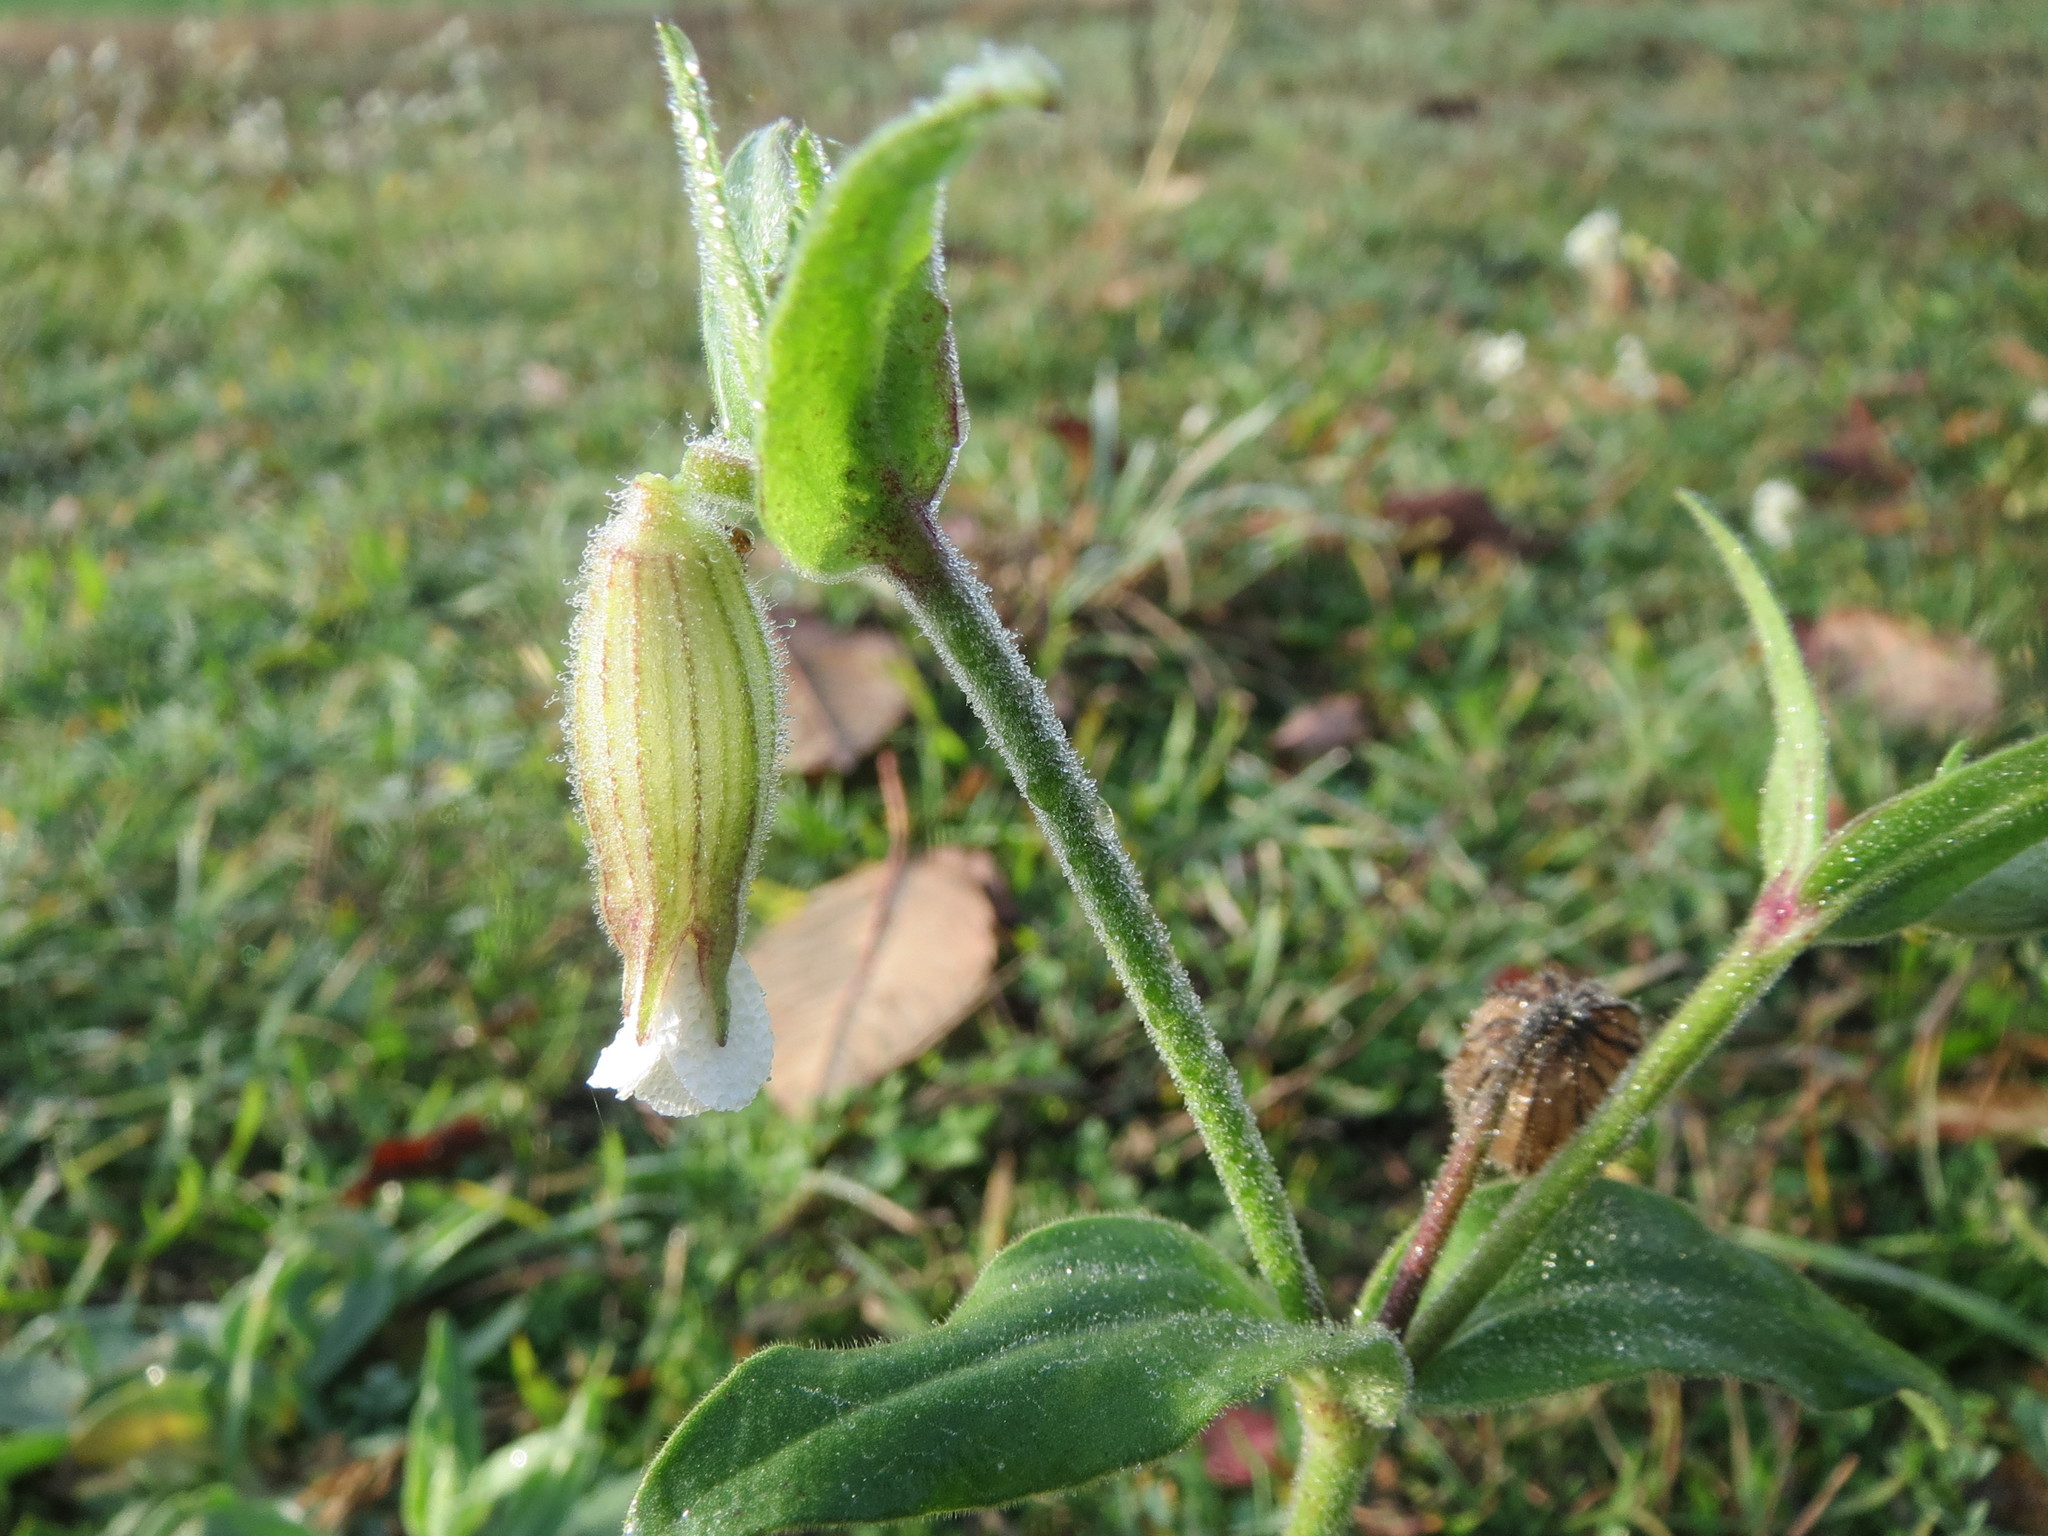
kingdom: Plantae
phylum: Tracheophyta
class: Magnoliopsida
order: Caryophyllales
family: Caryophyllaceae
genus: Silene
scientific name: Silene latifolia
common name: White campion
